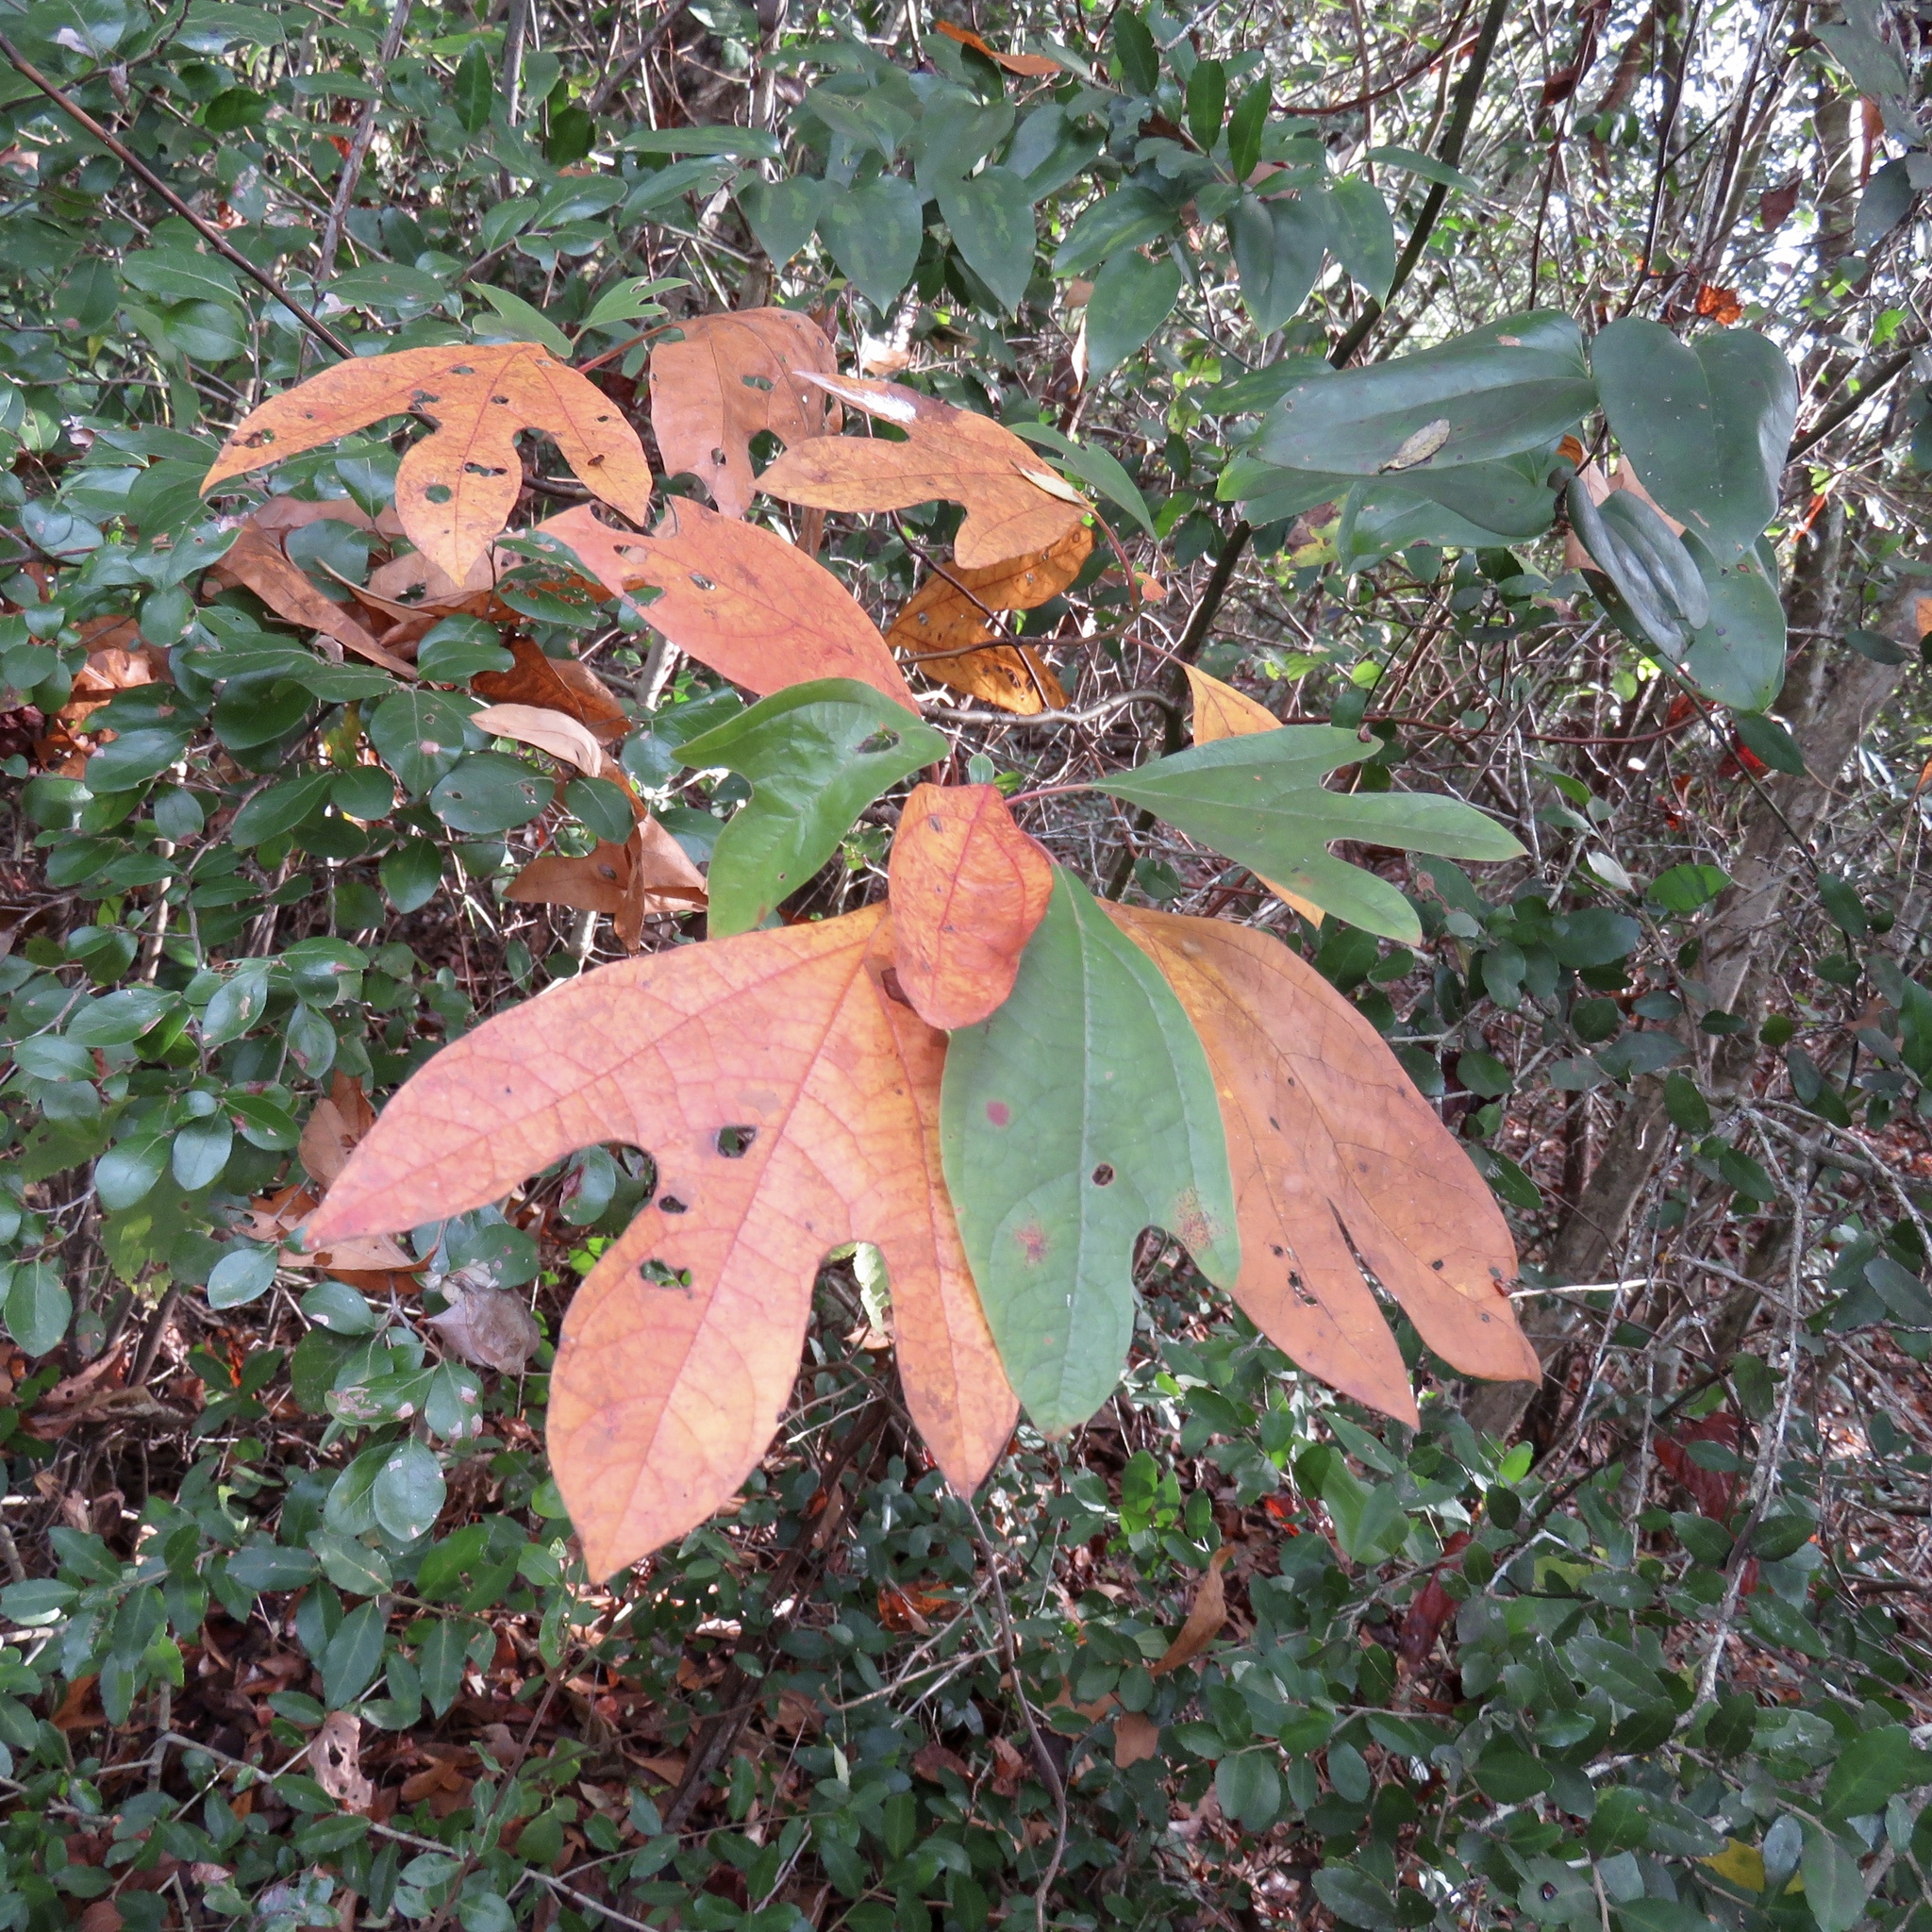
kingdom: Plantae
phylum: Tracheophyta
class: Magnoliopsida
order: Laurales
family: Lauraceae
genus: Sassafras
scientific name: Sassafras albidum
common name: Sassafras
